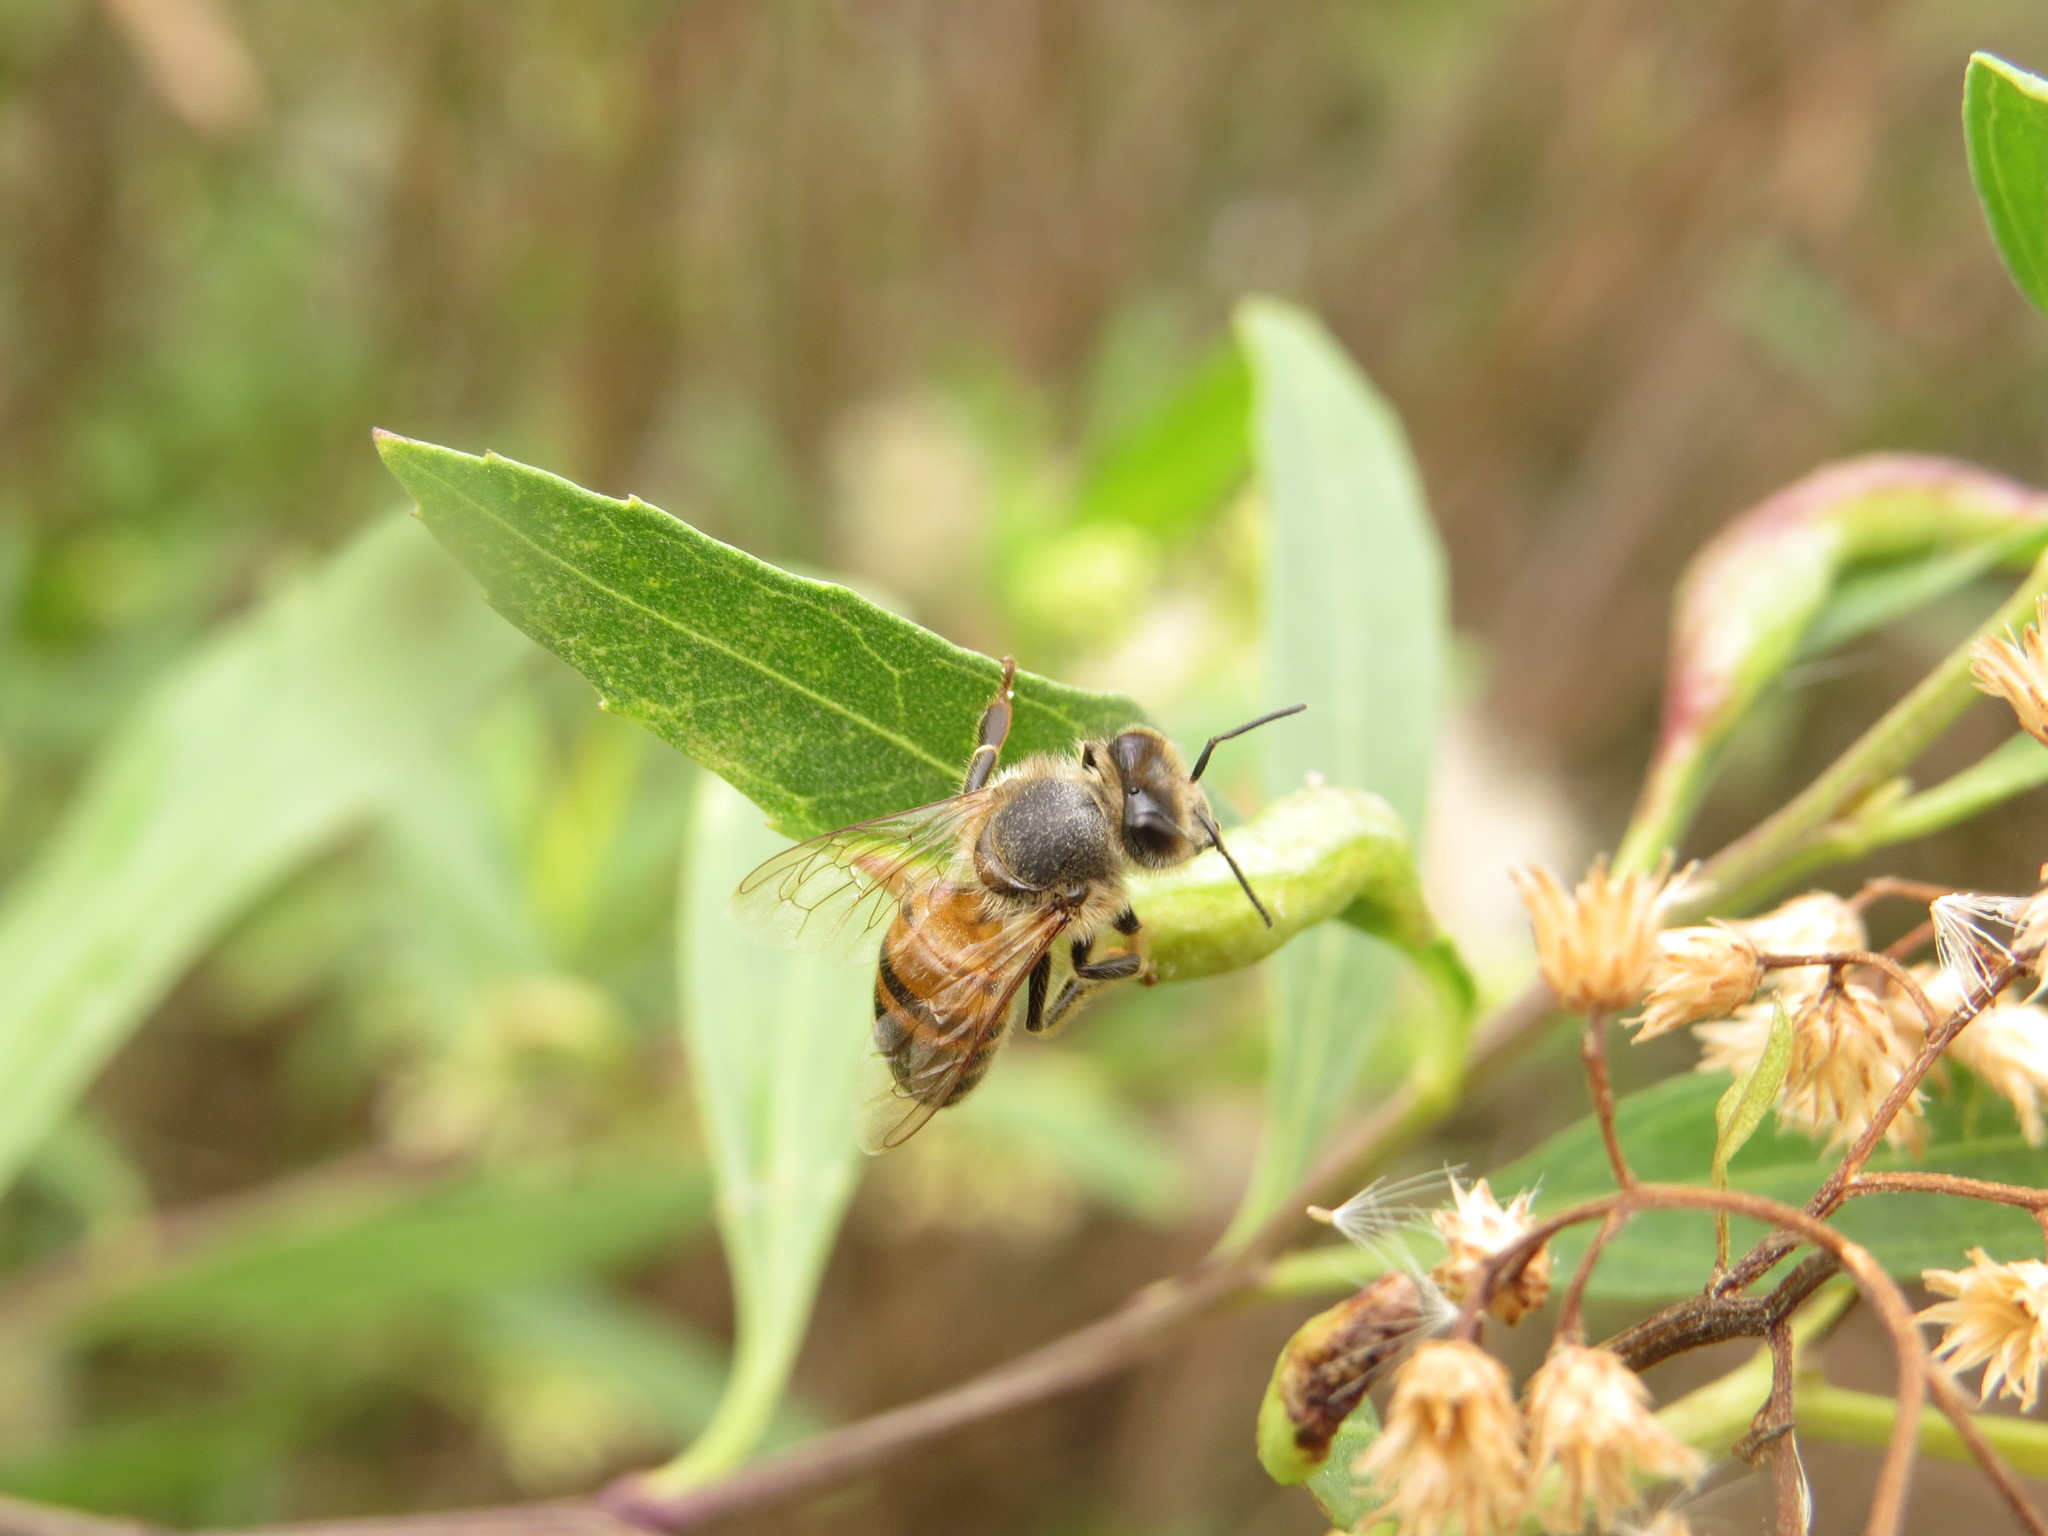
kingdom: Animalia
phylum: Arthropoda
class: Insecta
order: Hymenoptera
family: Apidae
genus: Apis
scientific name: Apis mellifera
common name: Honey bee
